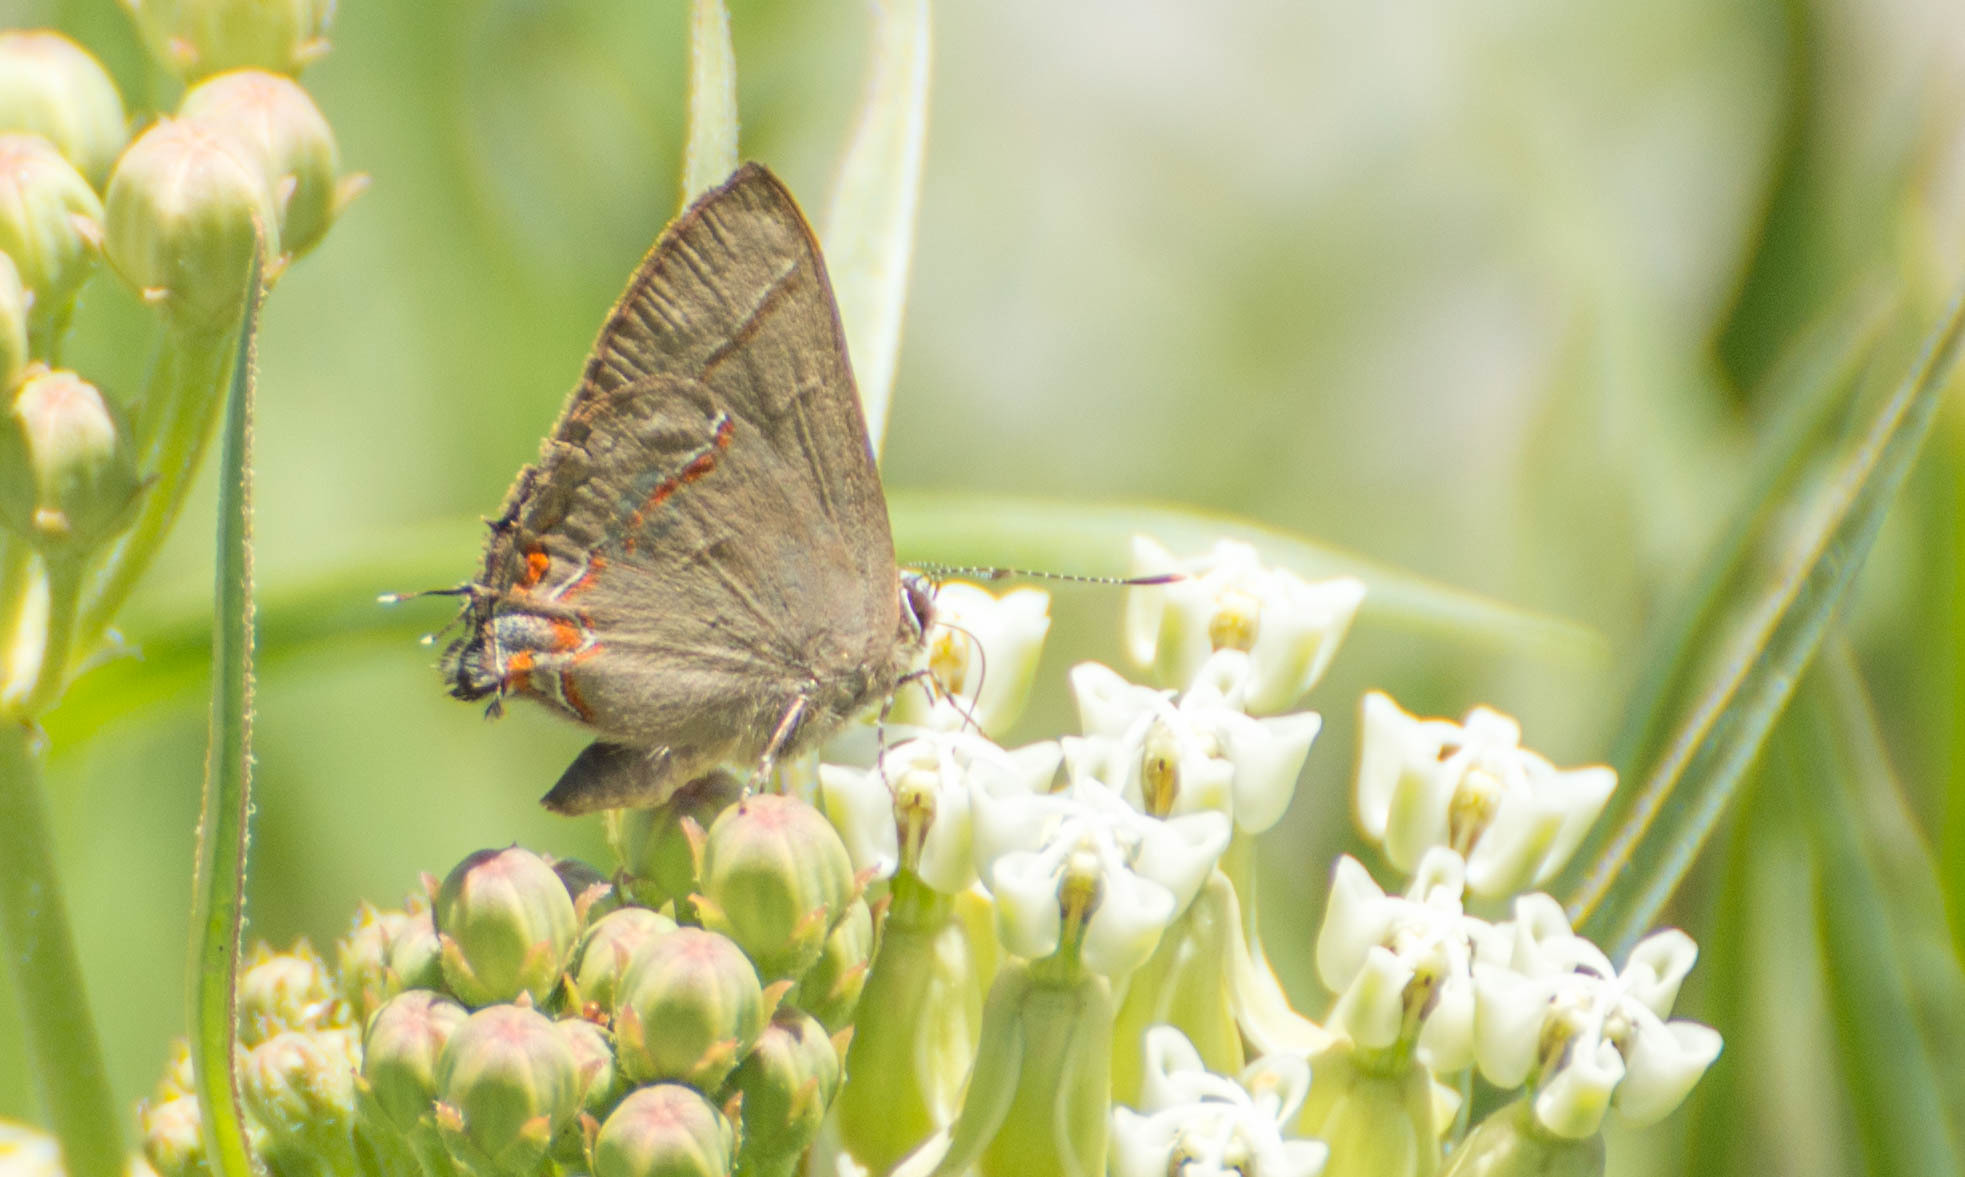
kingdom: Animalia
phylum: Arthropoda
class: Insecta
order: Lepidoptera
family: Lycaenidae
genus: Calycopis
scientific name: Calycopis caulonia
